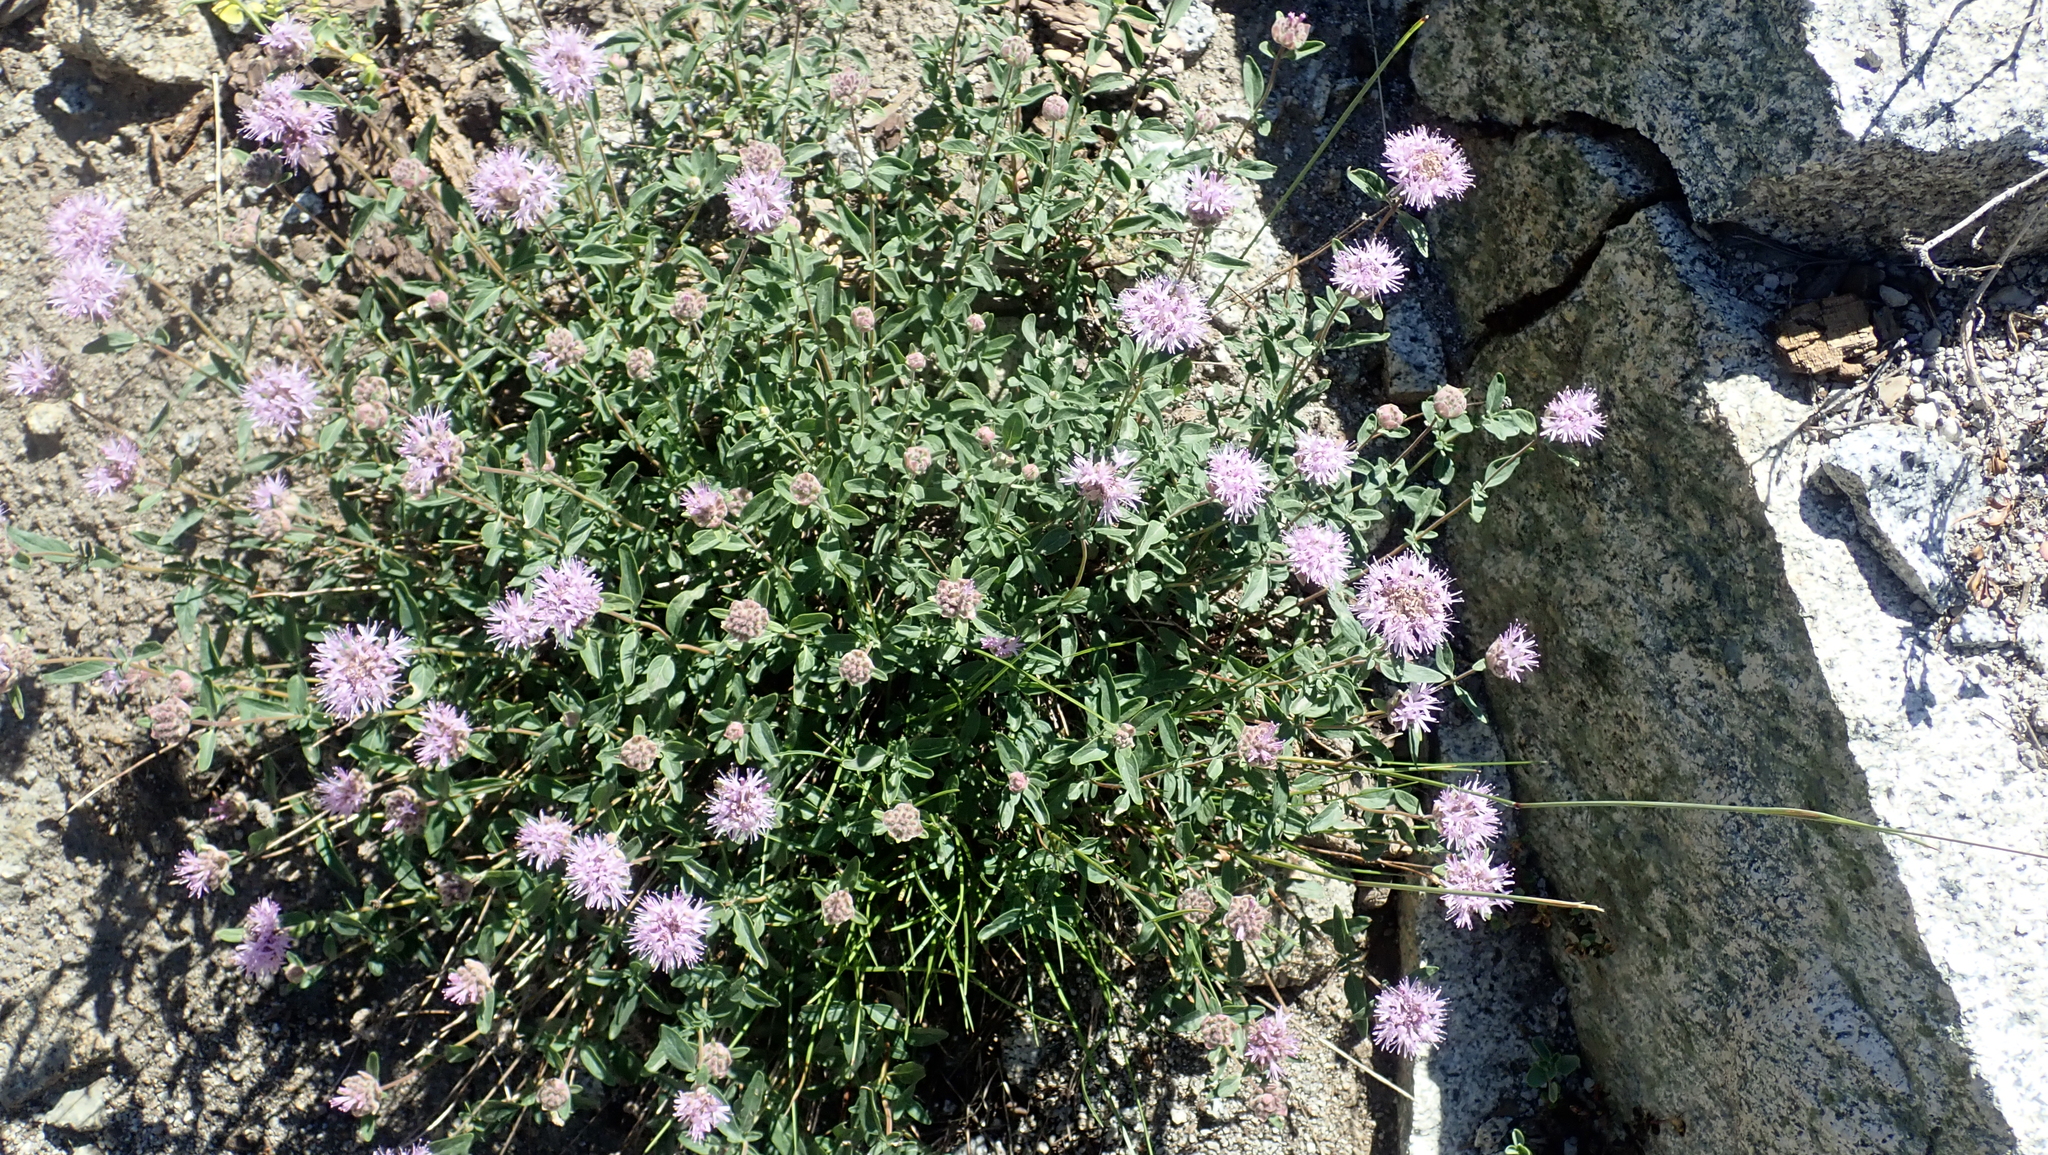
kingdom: Plantae
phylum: Tracheophyta
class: Magnoliopsida
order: Lamiales
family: Lamiaceae
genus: Monardella
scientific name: Monardella odoratissima
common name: Pacific monardella
